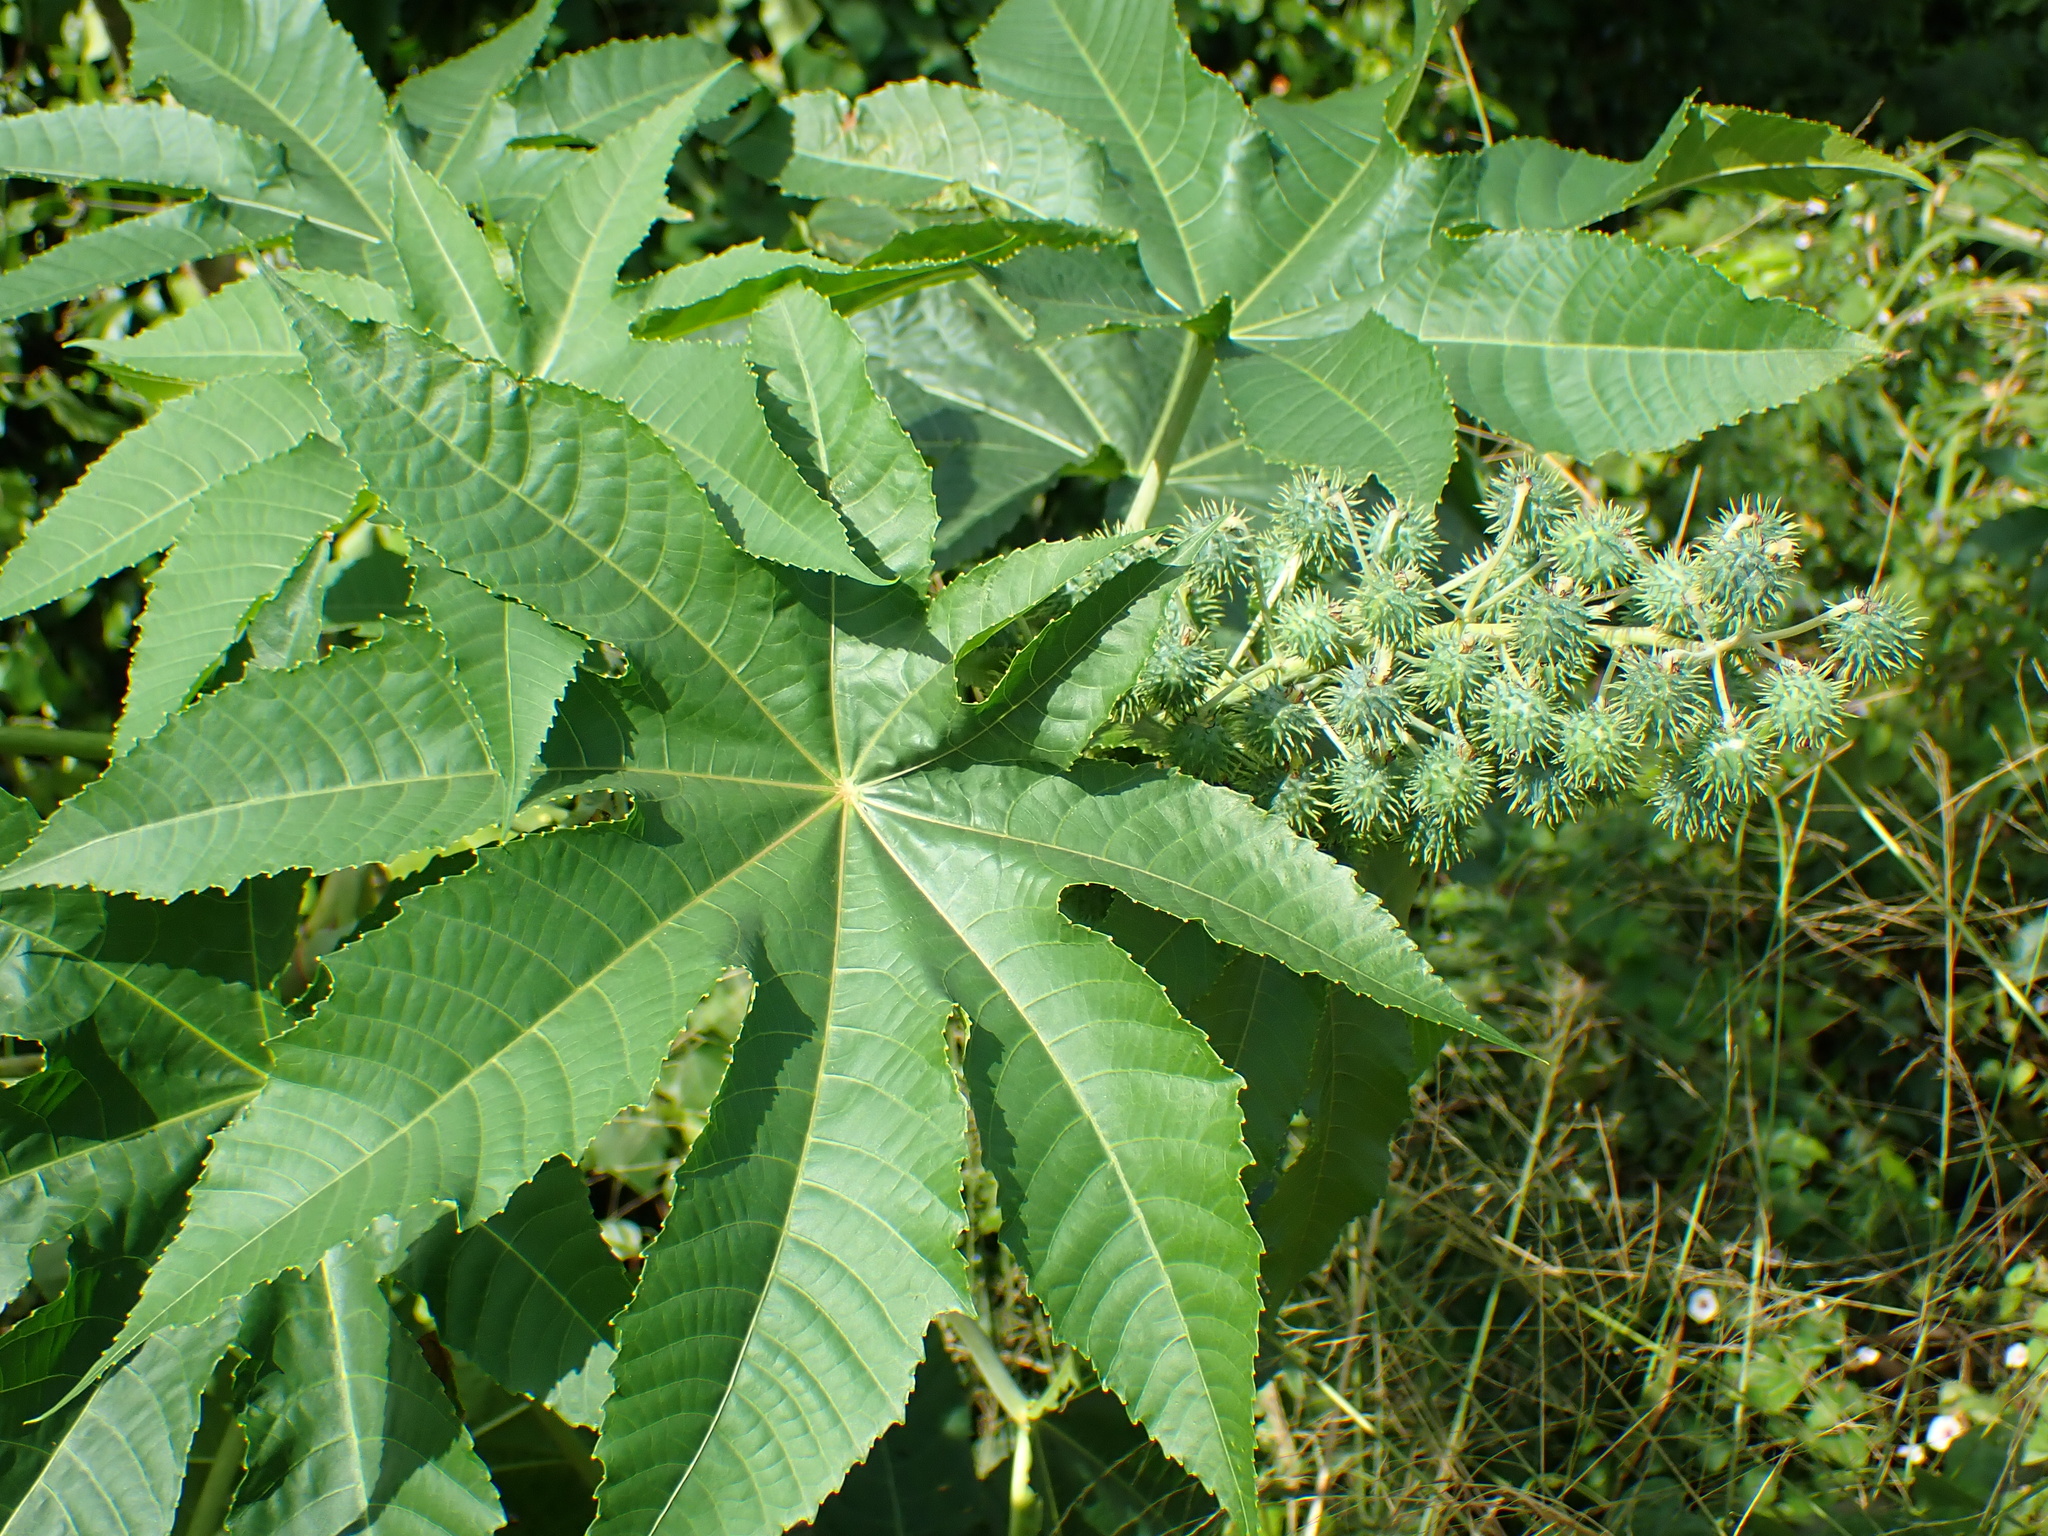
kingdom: Plantae
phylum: Tracheophyta
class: Magnoliopsida
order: Malpighiales
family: Euphorbiaceae
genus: Ricinus
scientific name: Ricinus communis
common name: Castor-oil-plant
